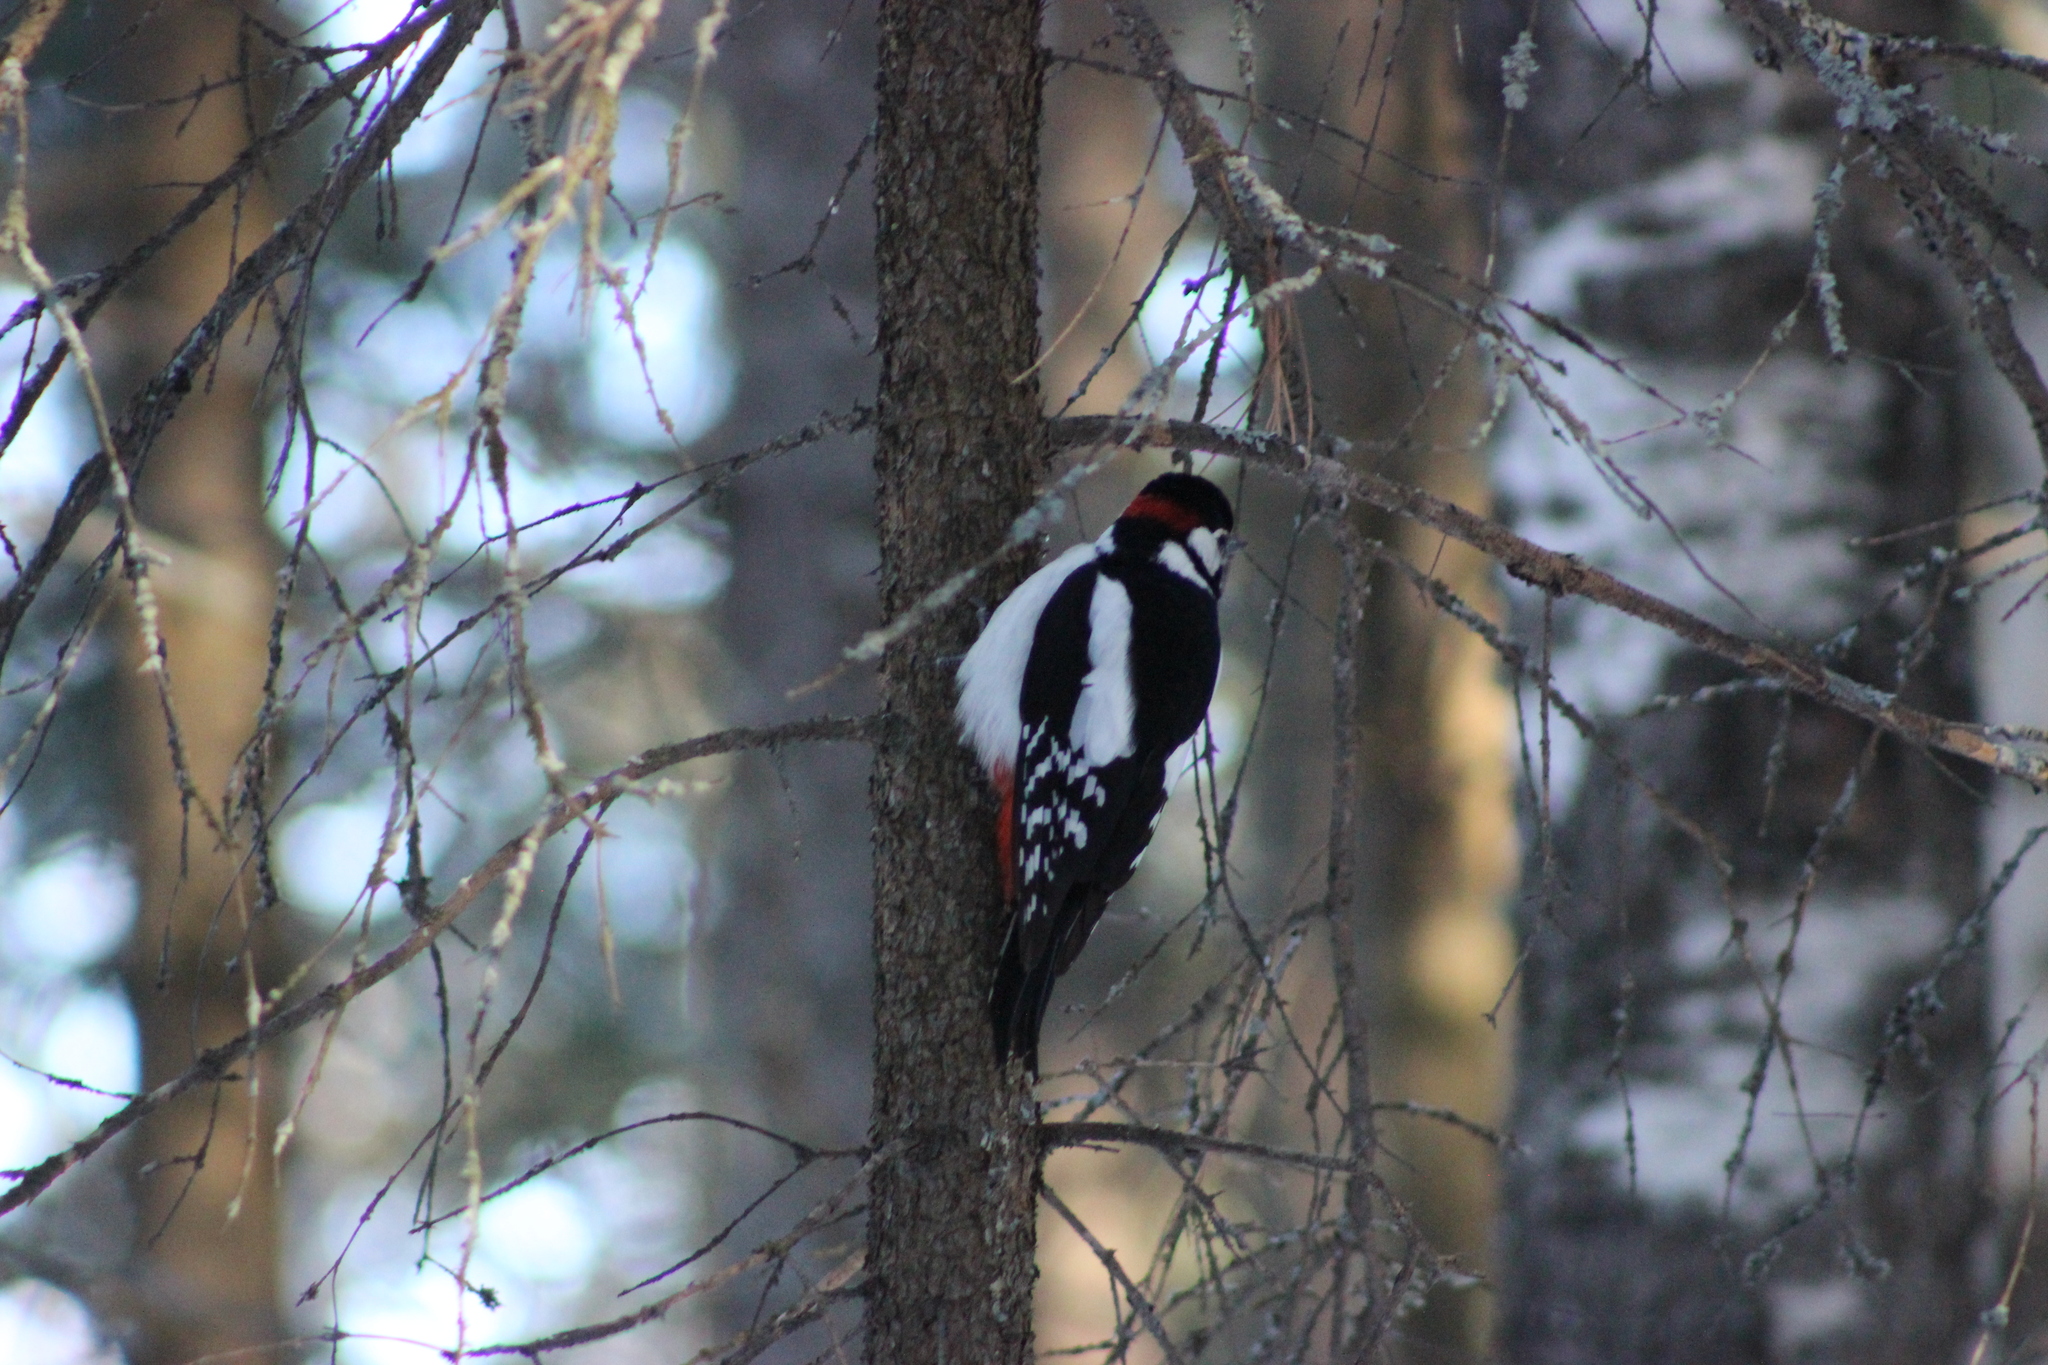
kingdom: Animalia
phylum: Chordata
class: Aves
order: Piciformes
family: Picidae
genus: Dendrocopos
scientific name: Dendrocopos major
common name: Great spotted woodpecker
